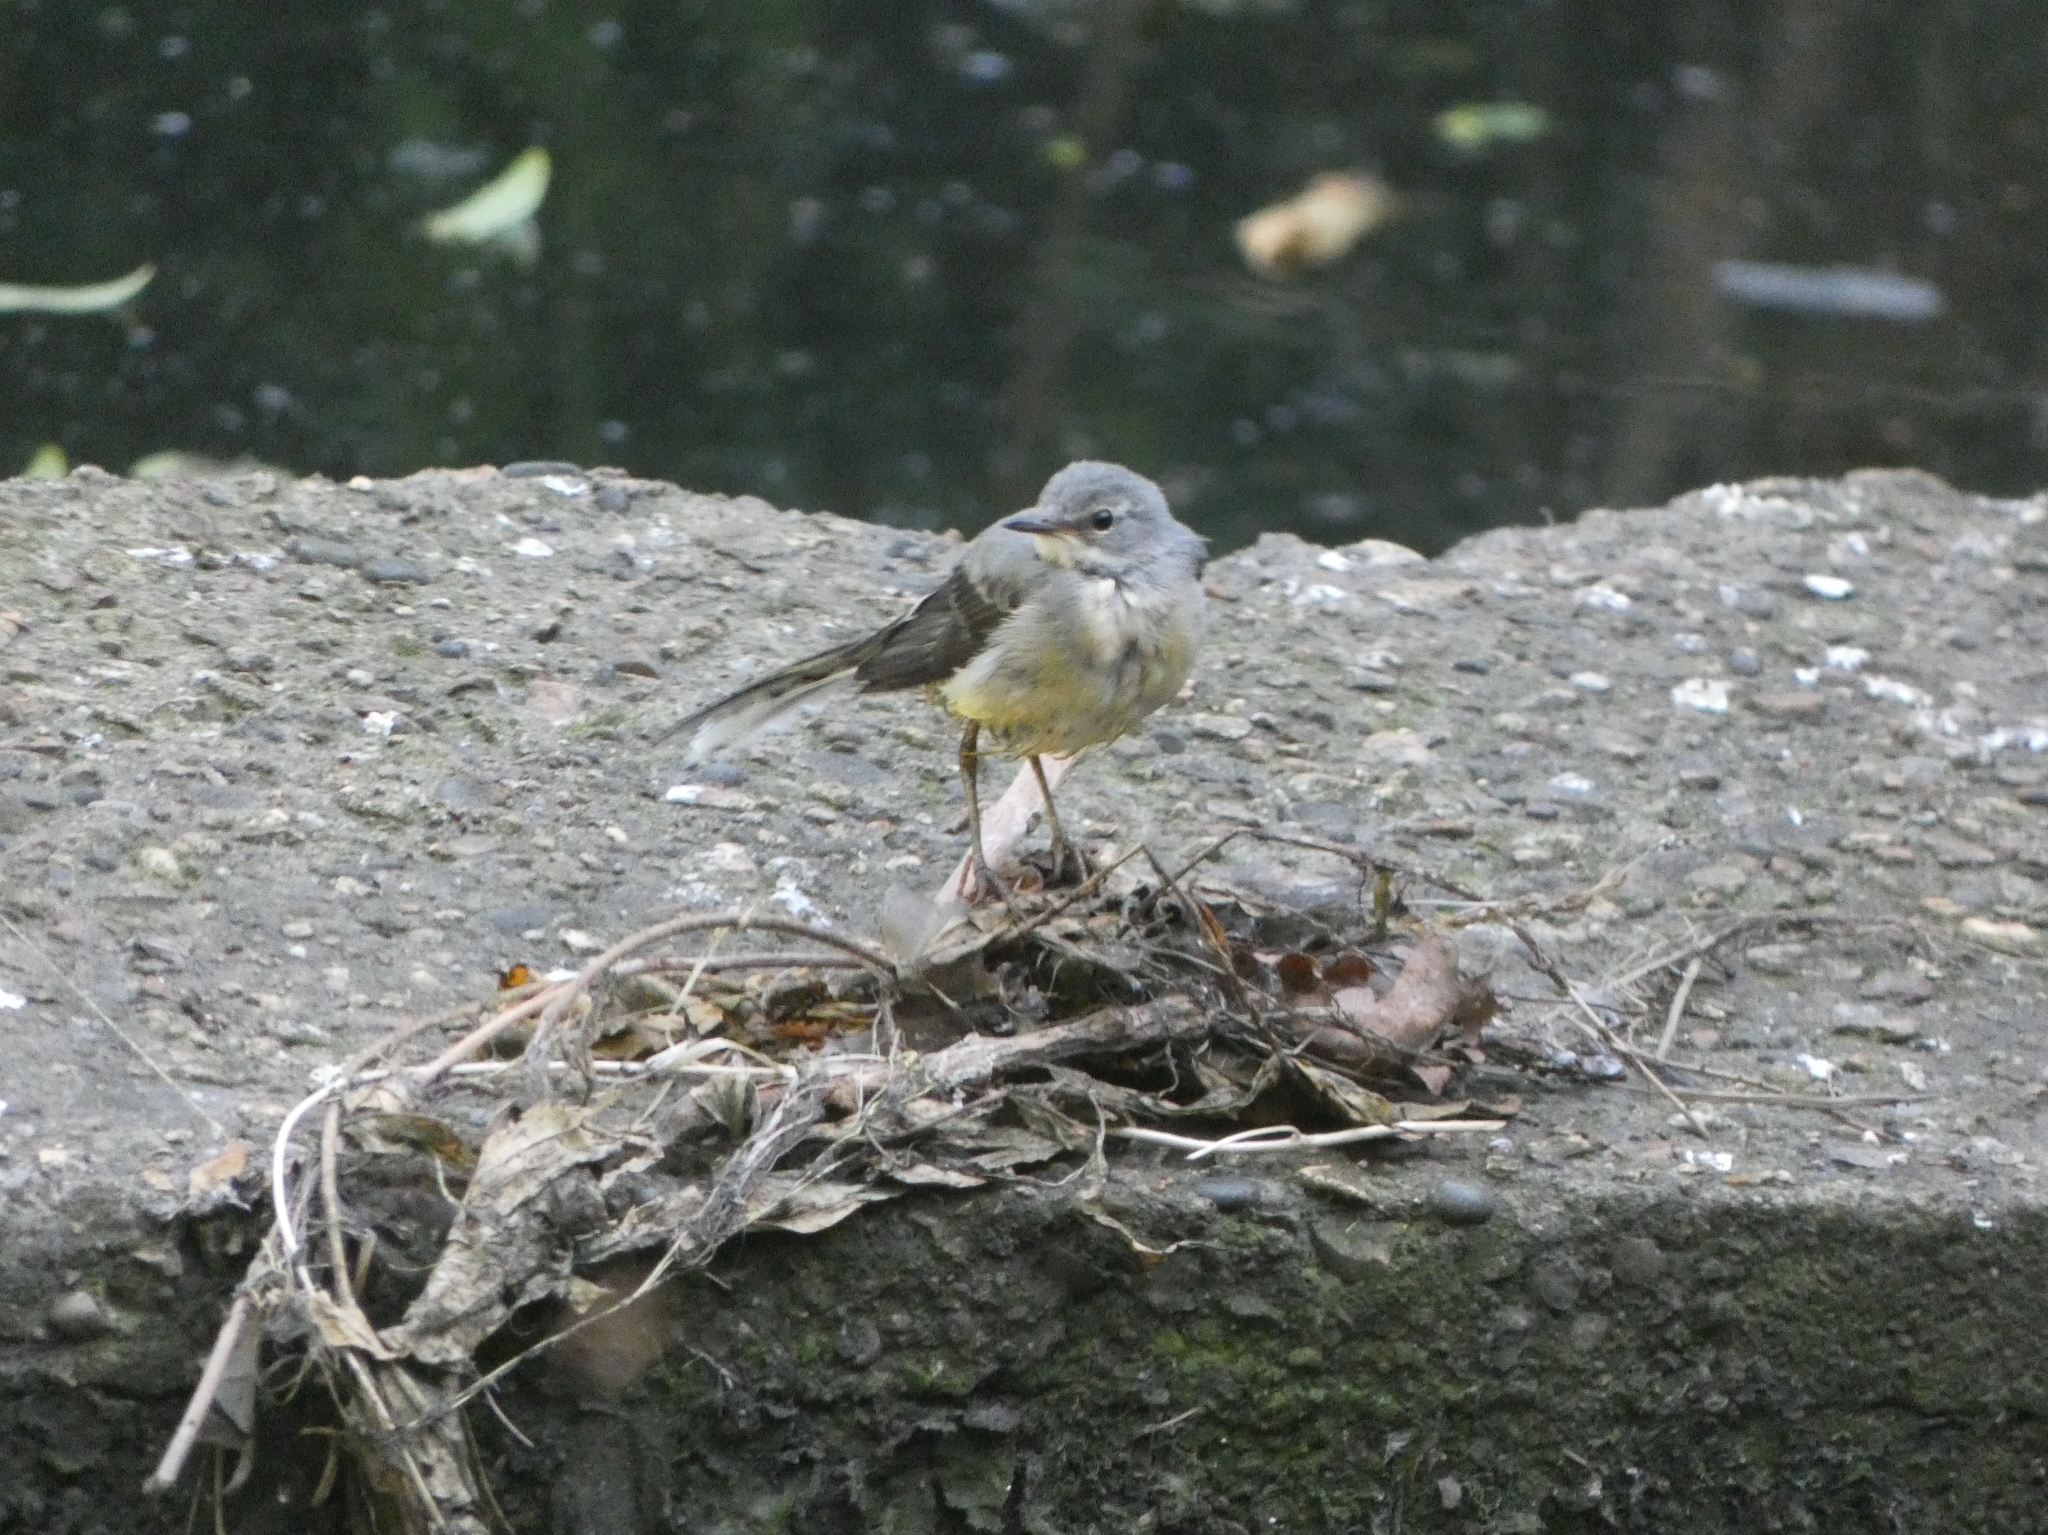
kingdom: Animalia
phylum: Chordata
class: Aves
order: Passeriformes
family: Motacillidae
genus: Motacilla
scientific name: Motacilla cinerea
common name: Grey wagtail
